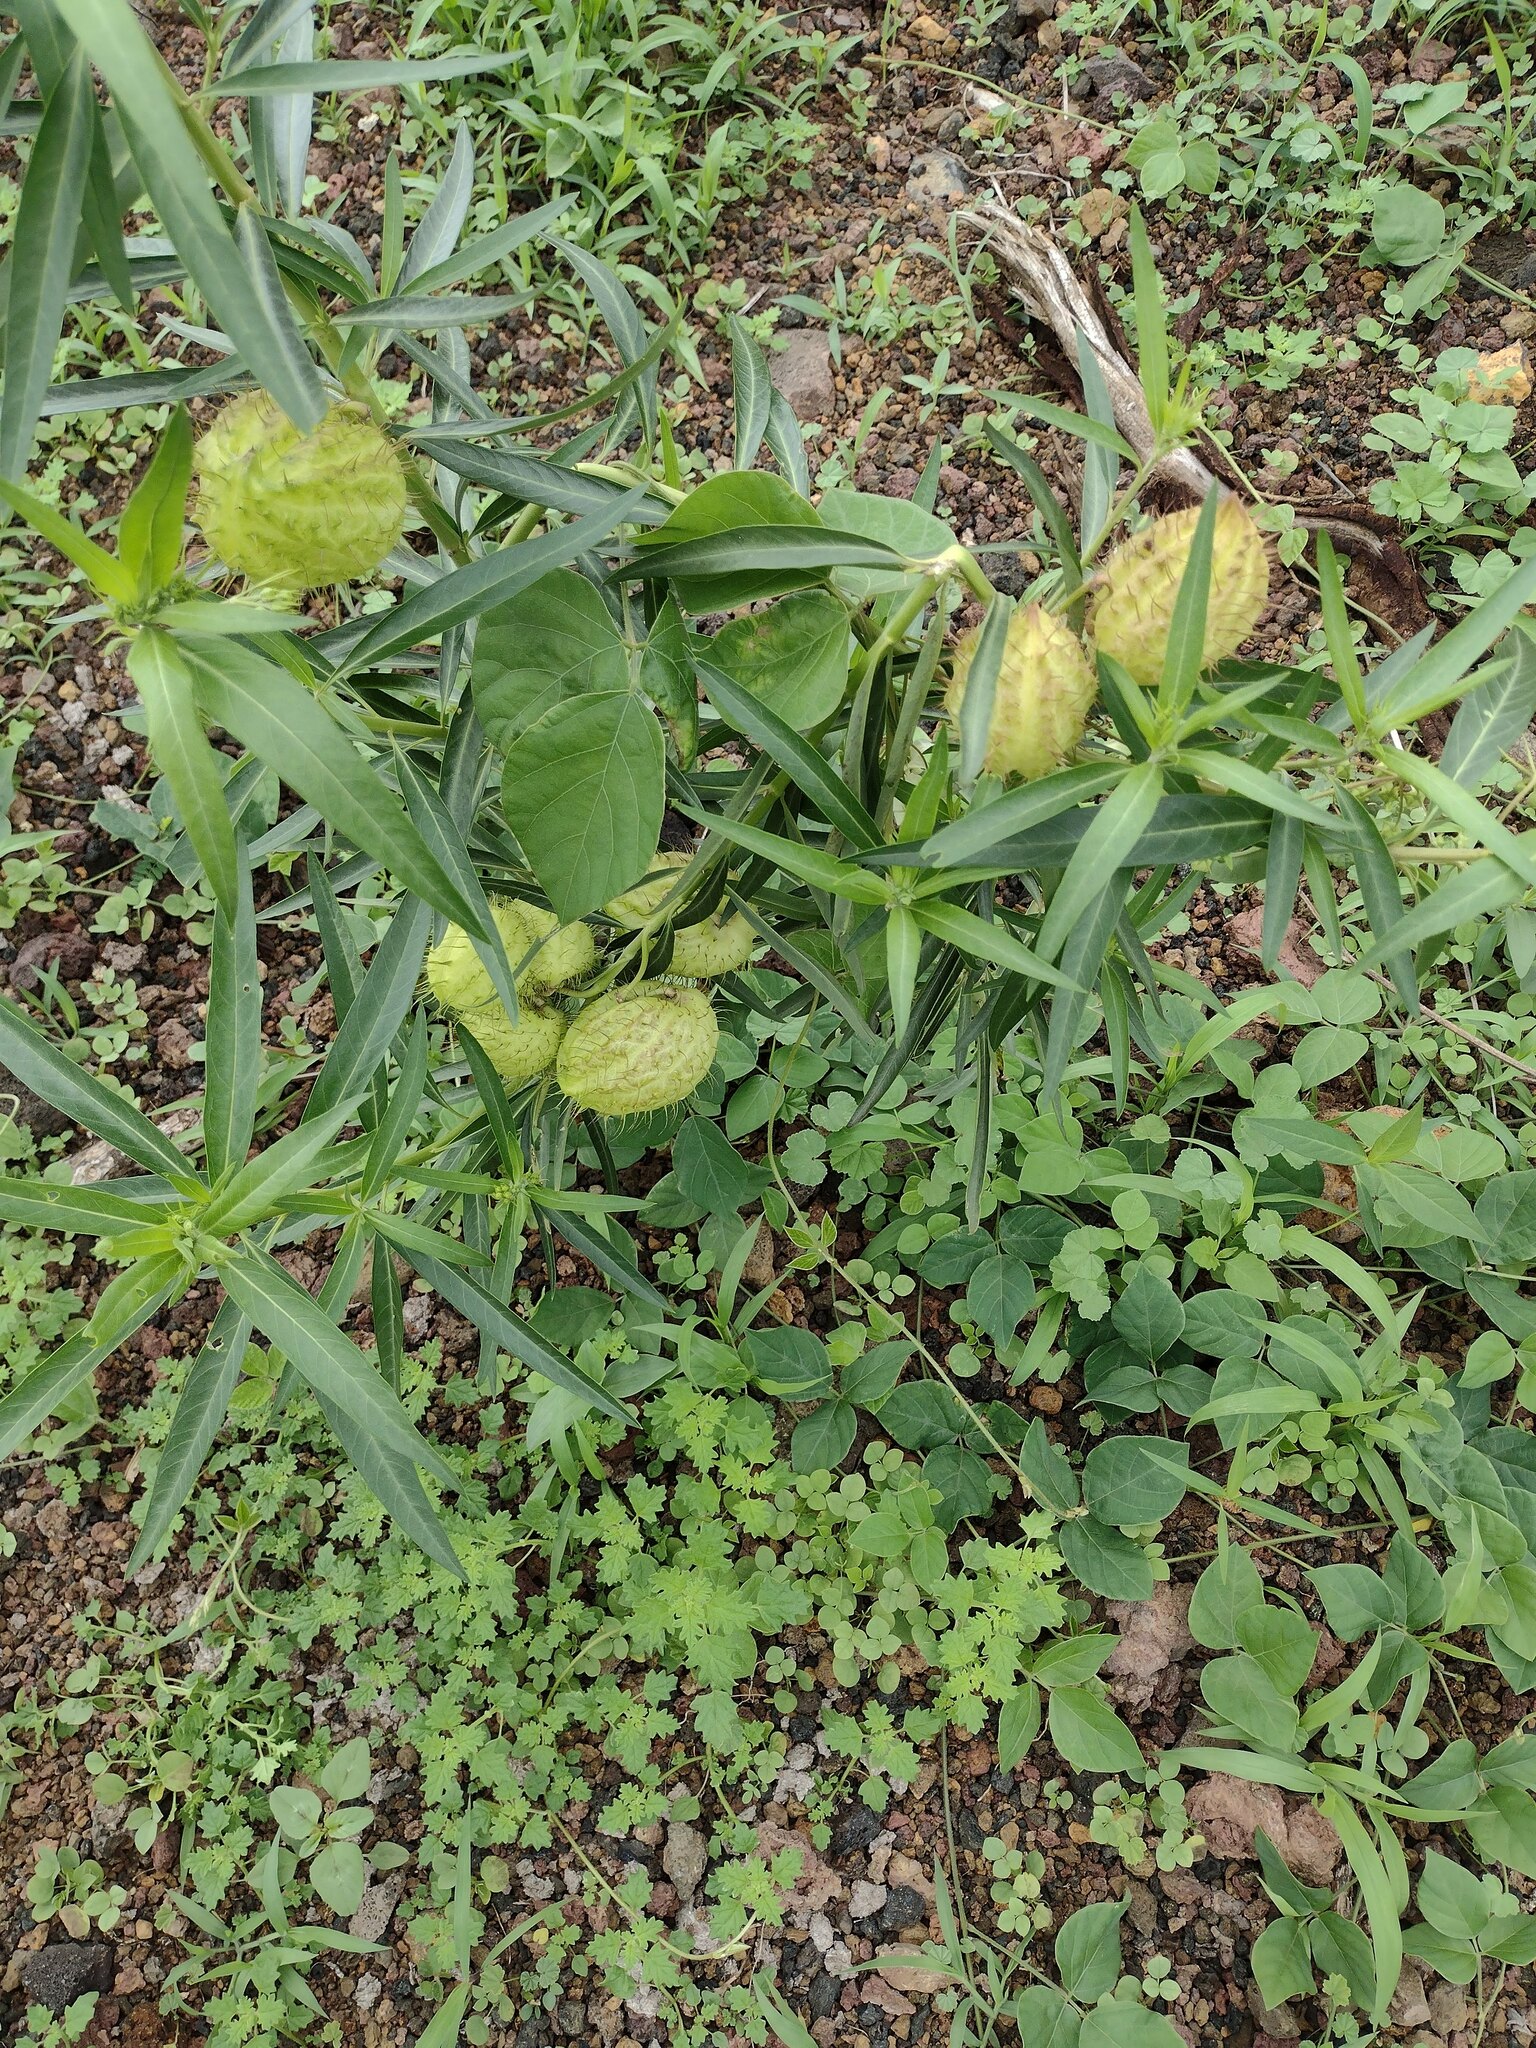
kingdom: Plantae
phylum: Tracheophyta
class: Magnoliopsida
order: Gentianales
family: Apocynaceae
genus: Gomphocarpus
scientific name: Gomphocarpus physocarpus
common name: Balloon cotton bush
